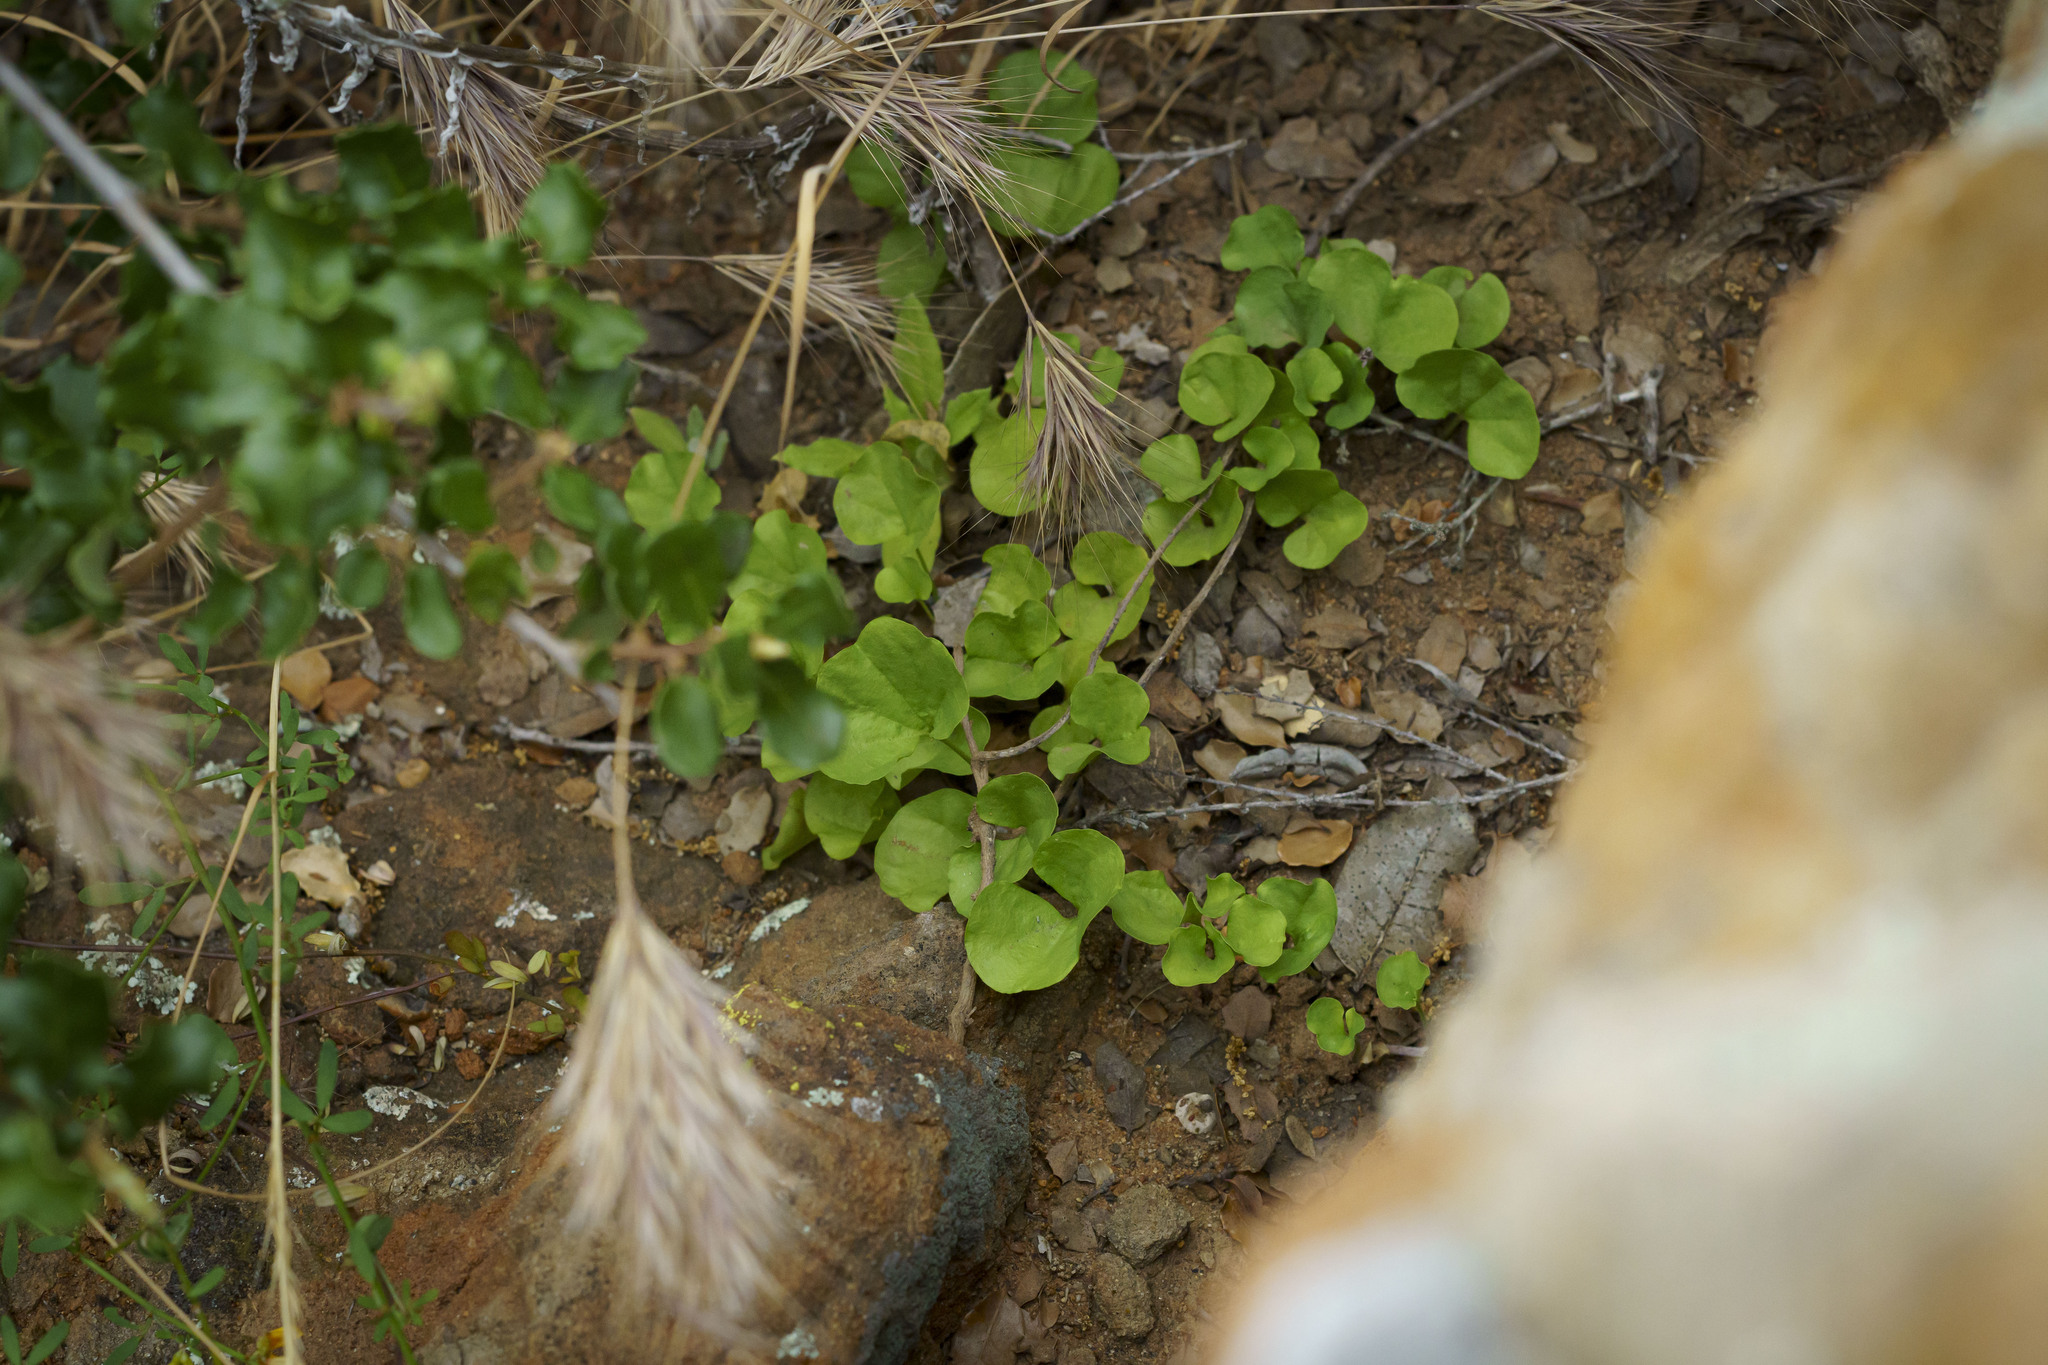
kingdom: Plantae
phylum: Tracheophyta
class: Magnoliopsida
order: Solanales
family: Convolvulaceae
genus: Dichondra
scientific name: Dichondra occidentalis
